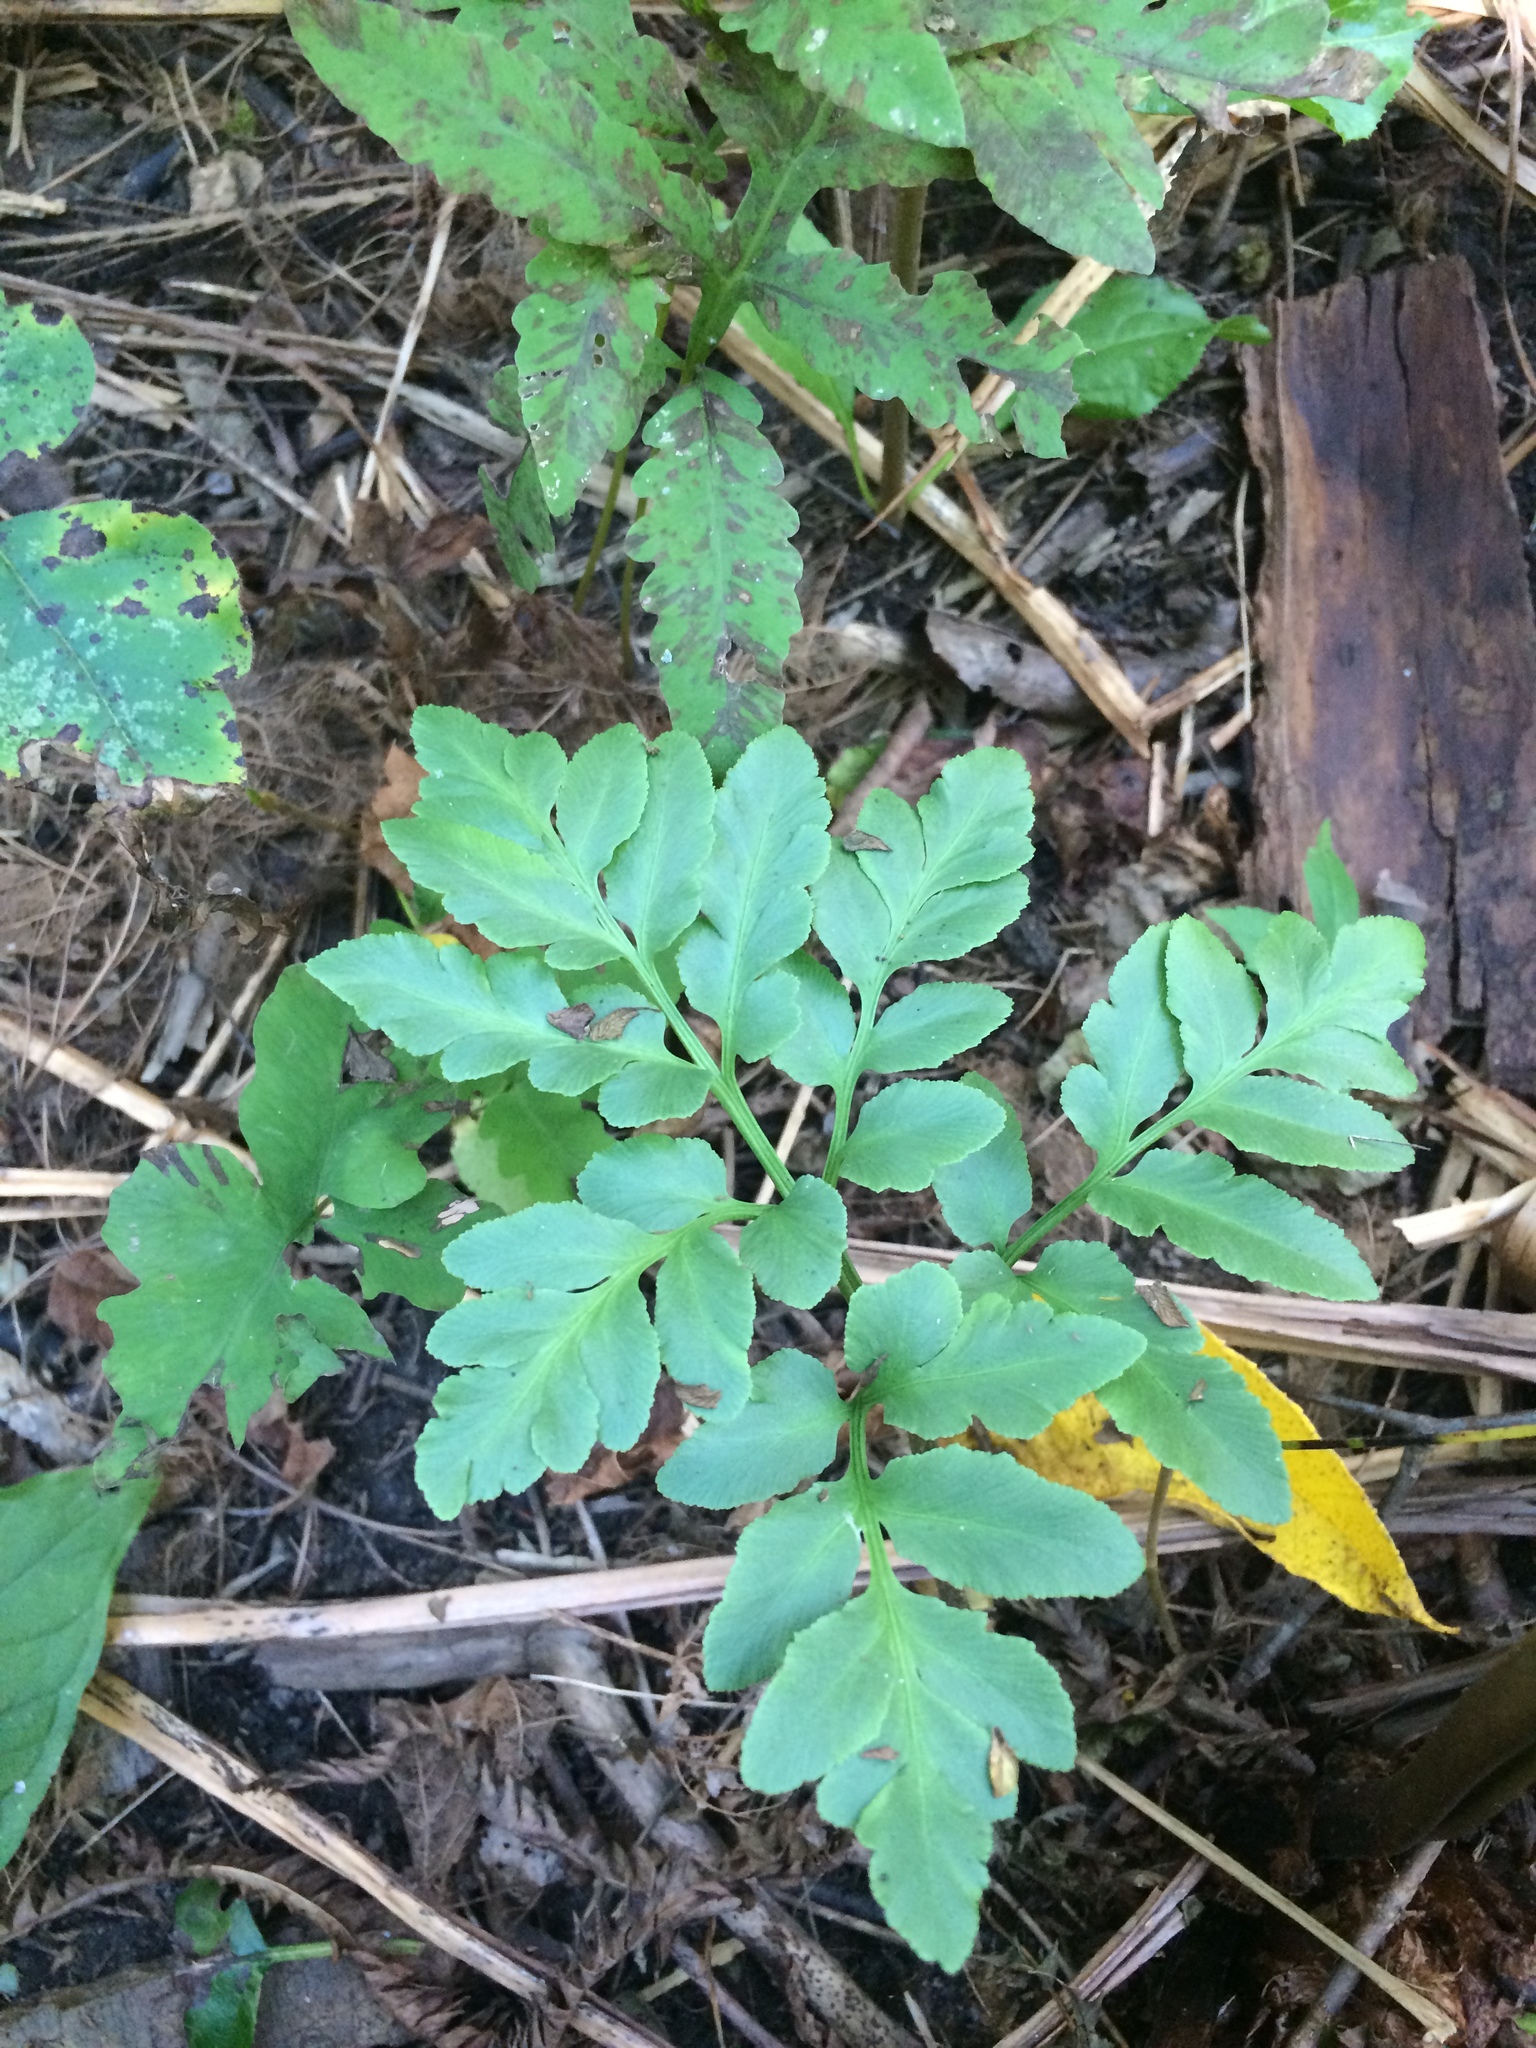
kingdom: Plantae
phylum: Tracheophyta
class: Polypodiopsida
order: Ophioglossales
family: Ophioglossaceae
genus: Sceptridium
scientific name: Sceptridium dissectum
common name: Cut-leaved grapefern
